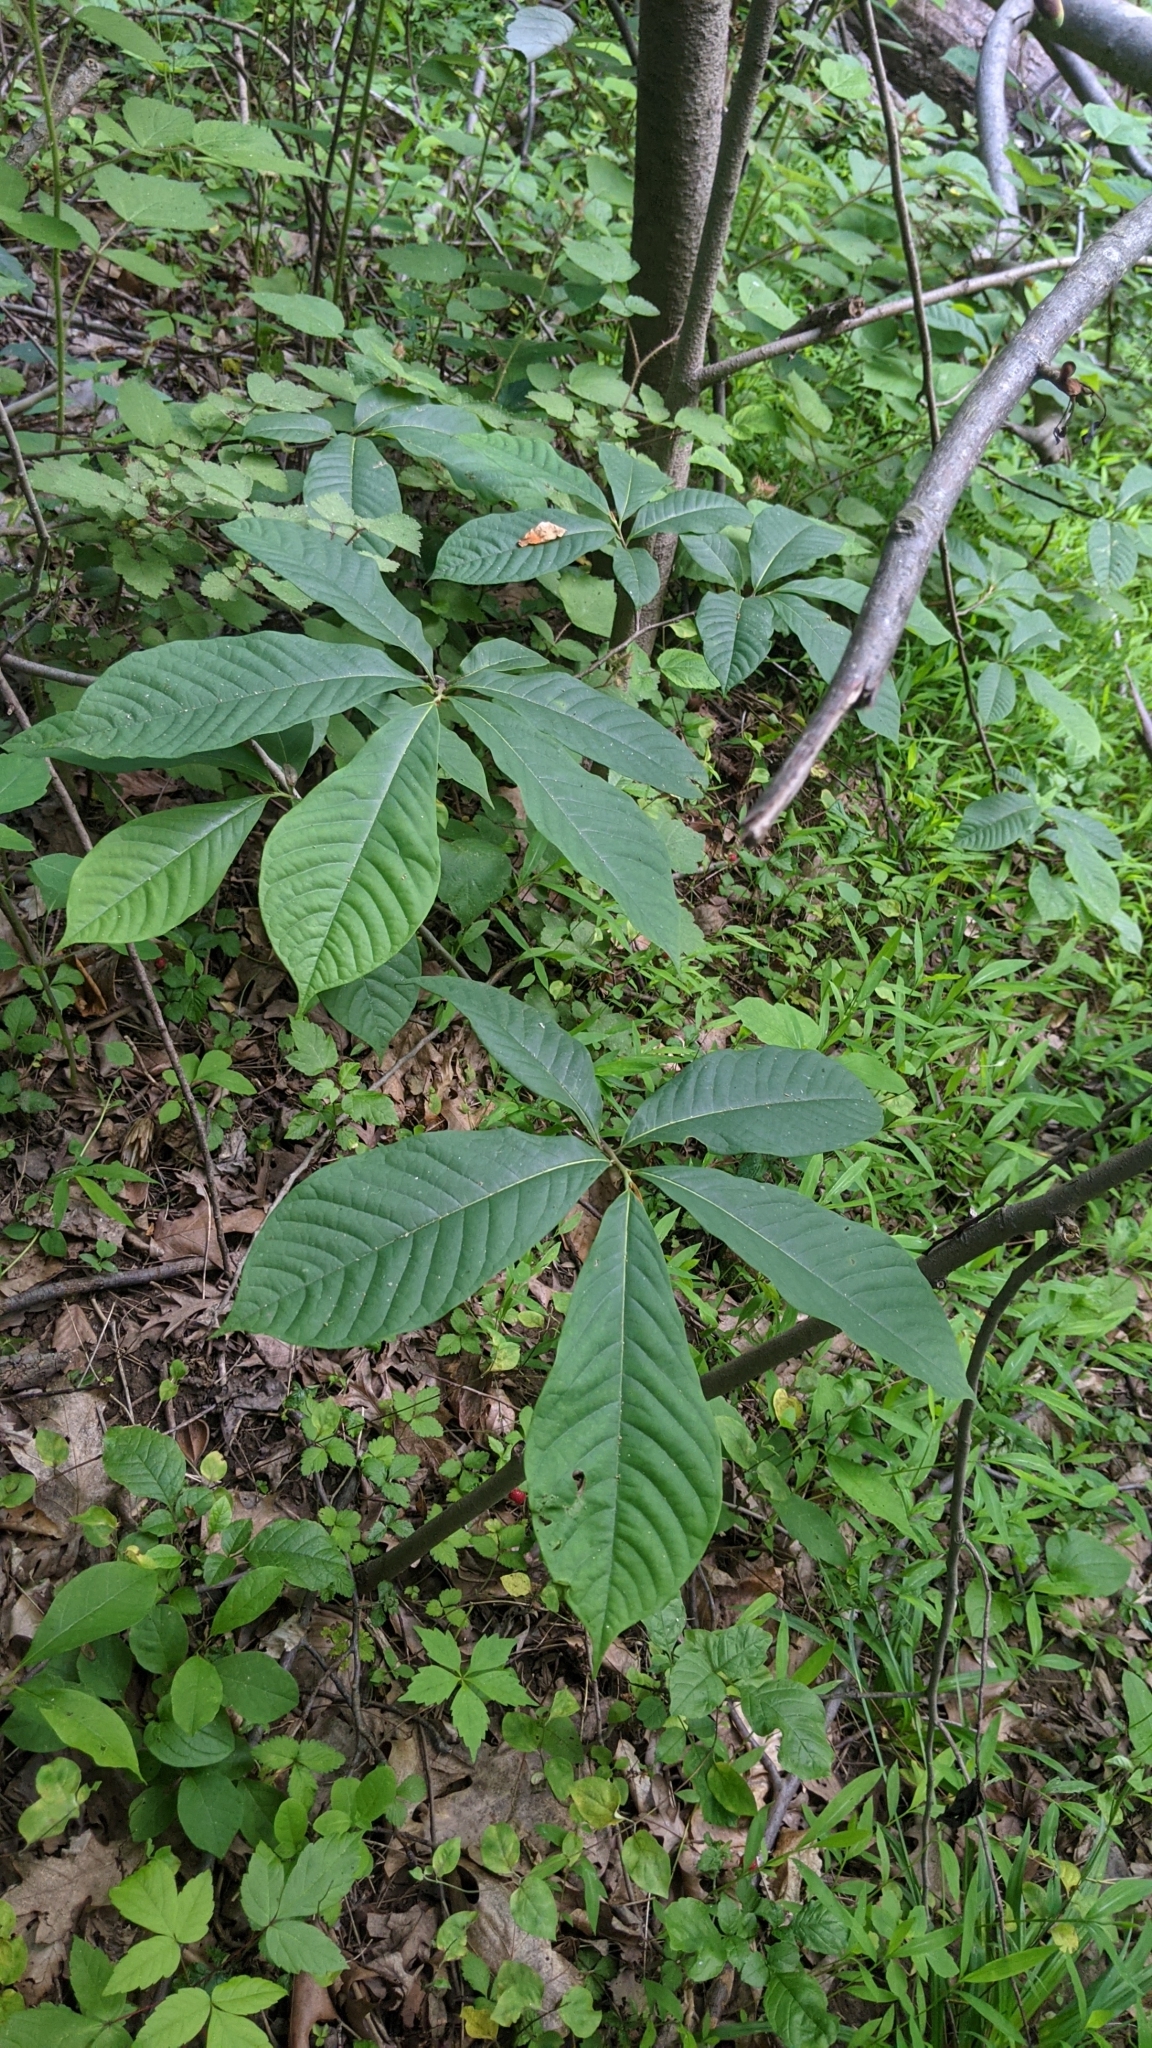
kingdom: Plantae
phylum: Tracheophyta
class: Magnoliopsida
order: Magnoliales
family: Annonaceae
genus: Asimina
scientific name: Asimina triloba
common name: Dog-banana
